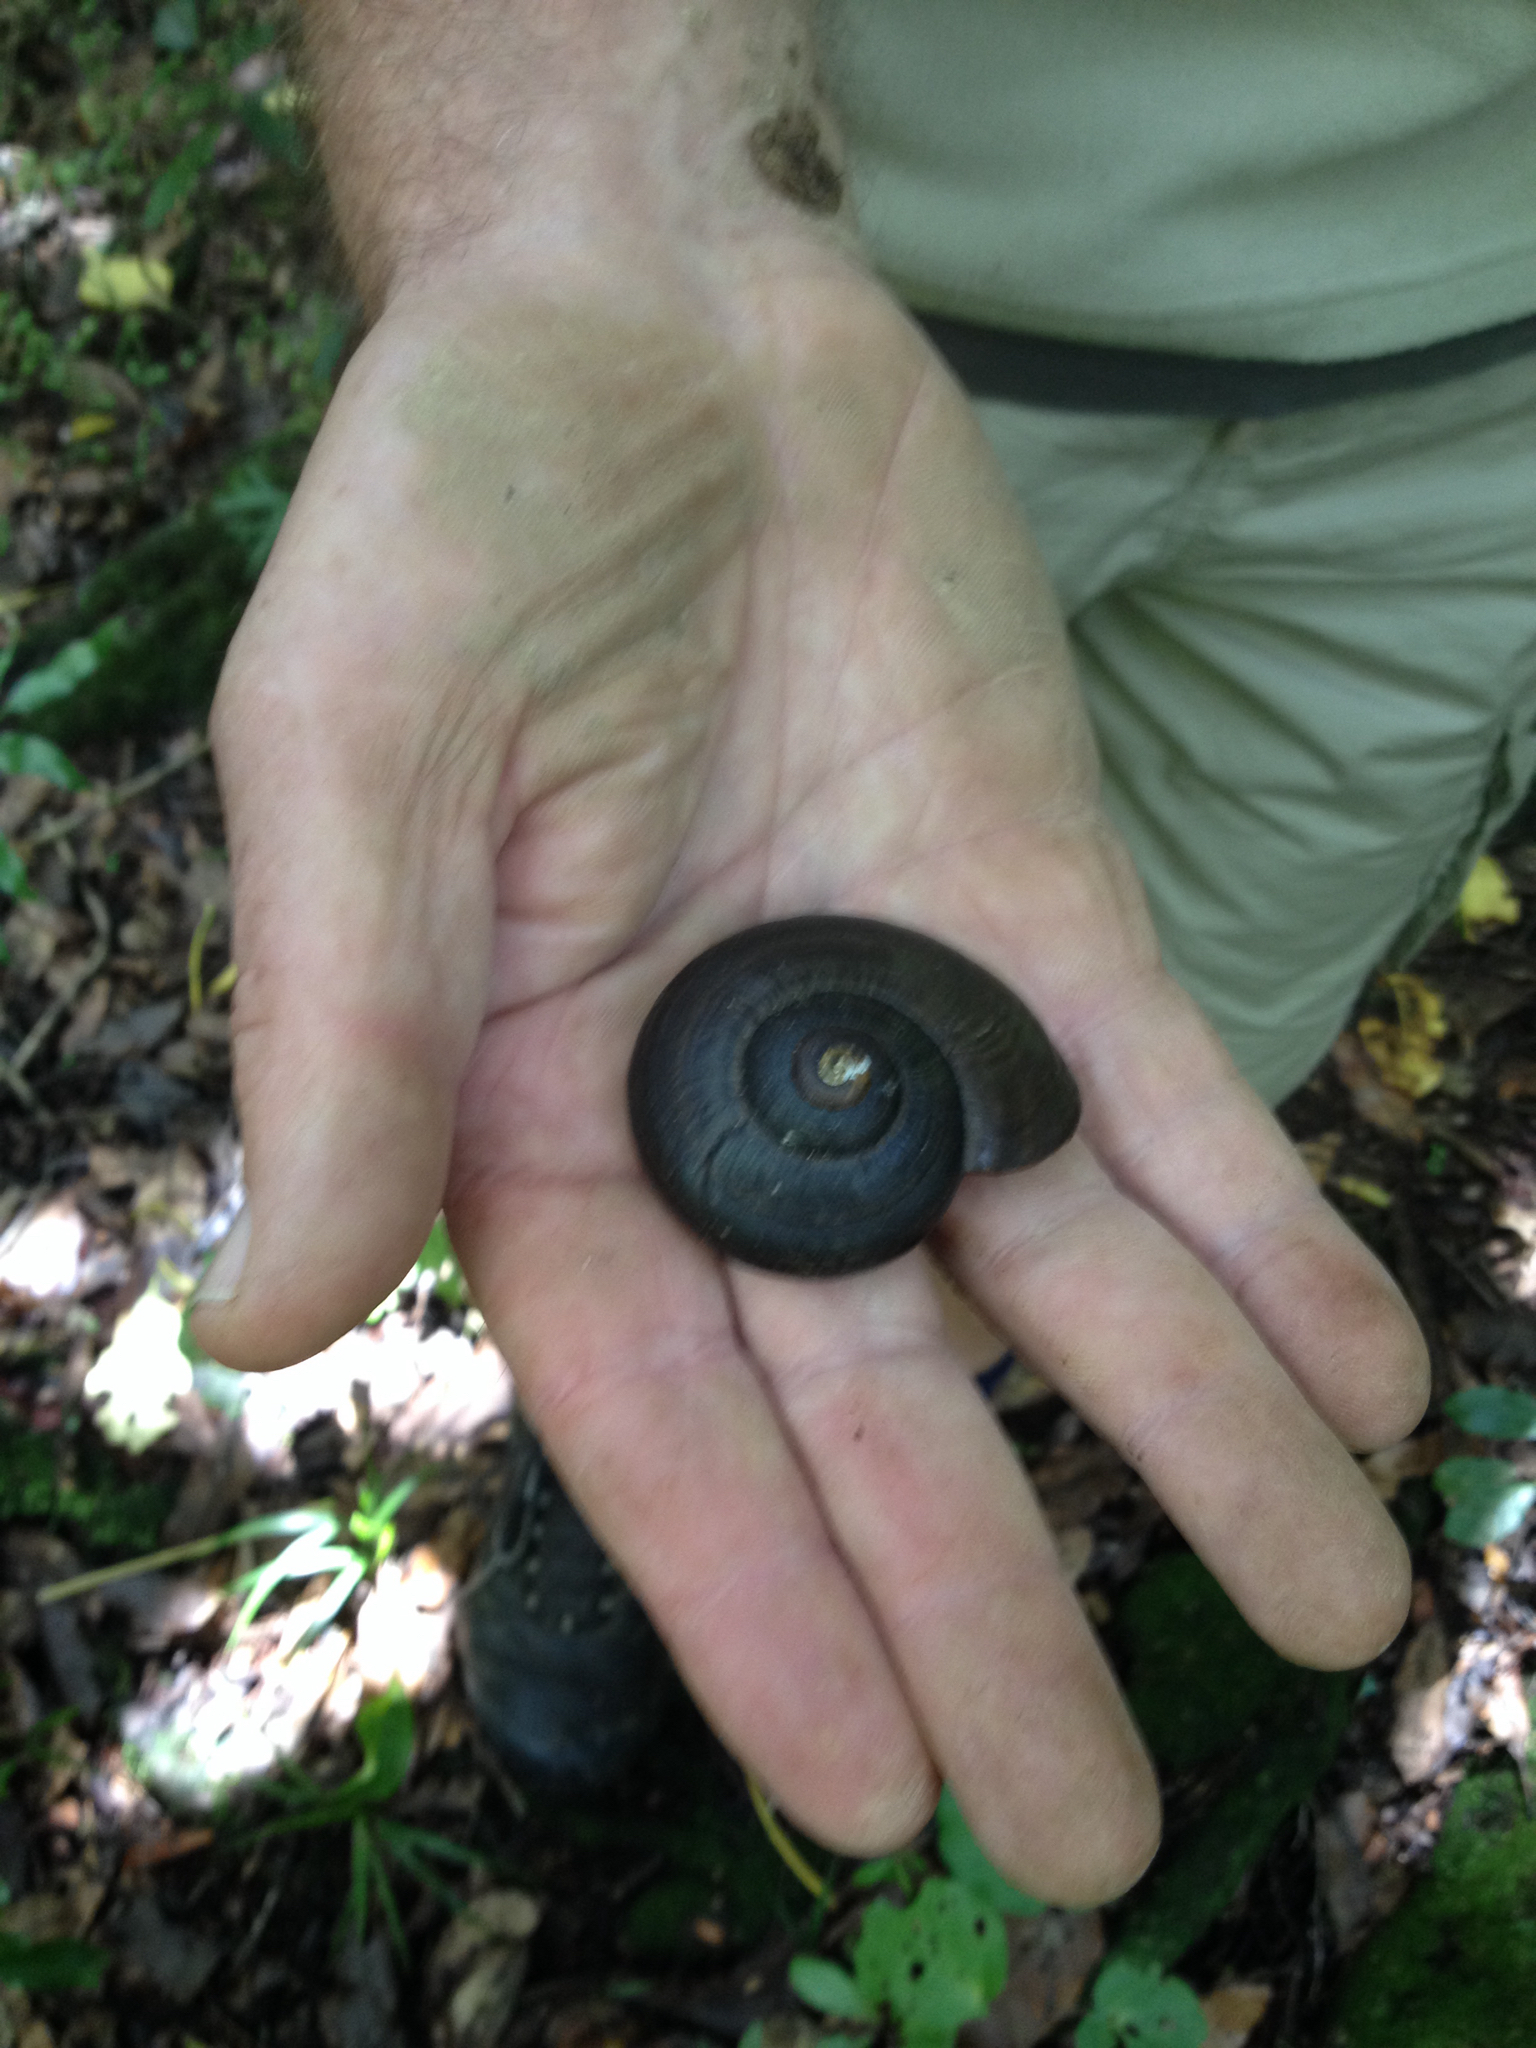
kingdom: Animalia
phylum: Mollusca
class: Gastropoda
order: Stylommatophora
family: Rhytididae
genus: Powelliphanta
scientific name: Powelliphanta traversi
